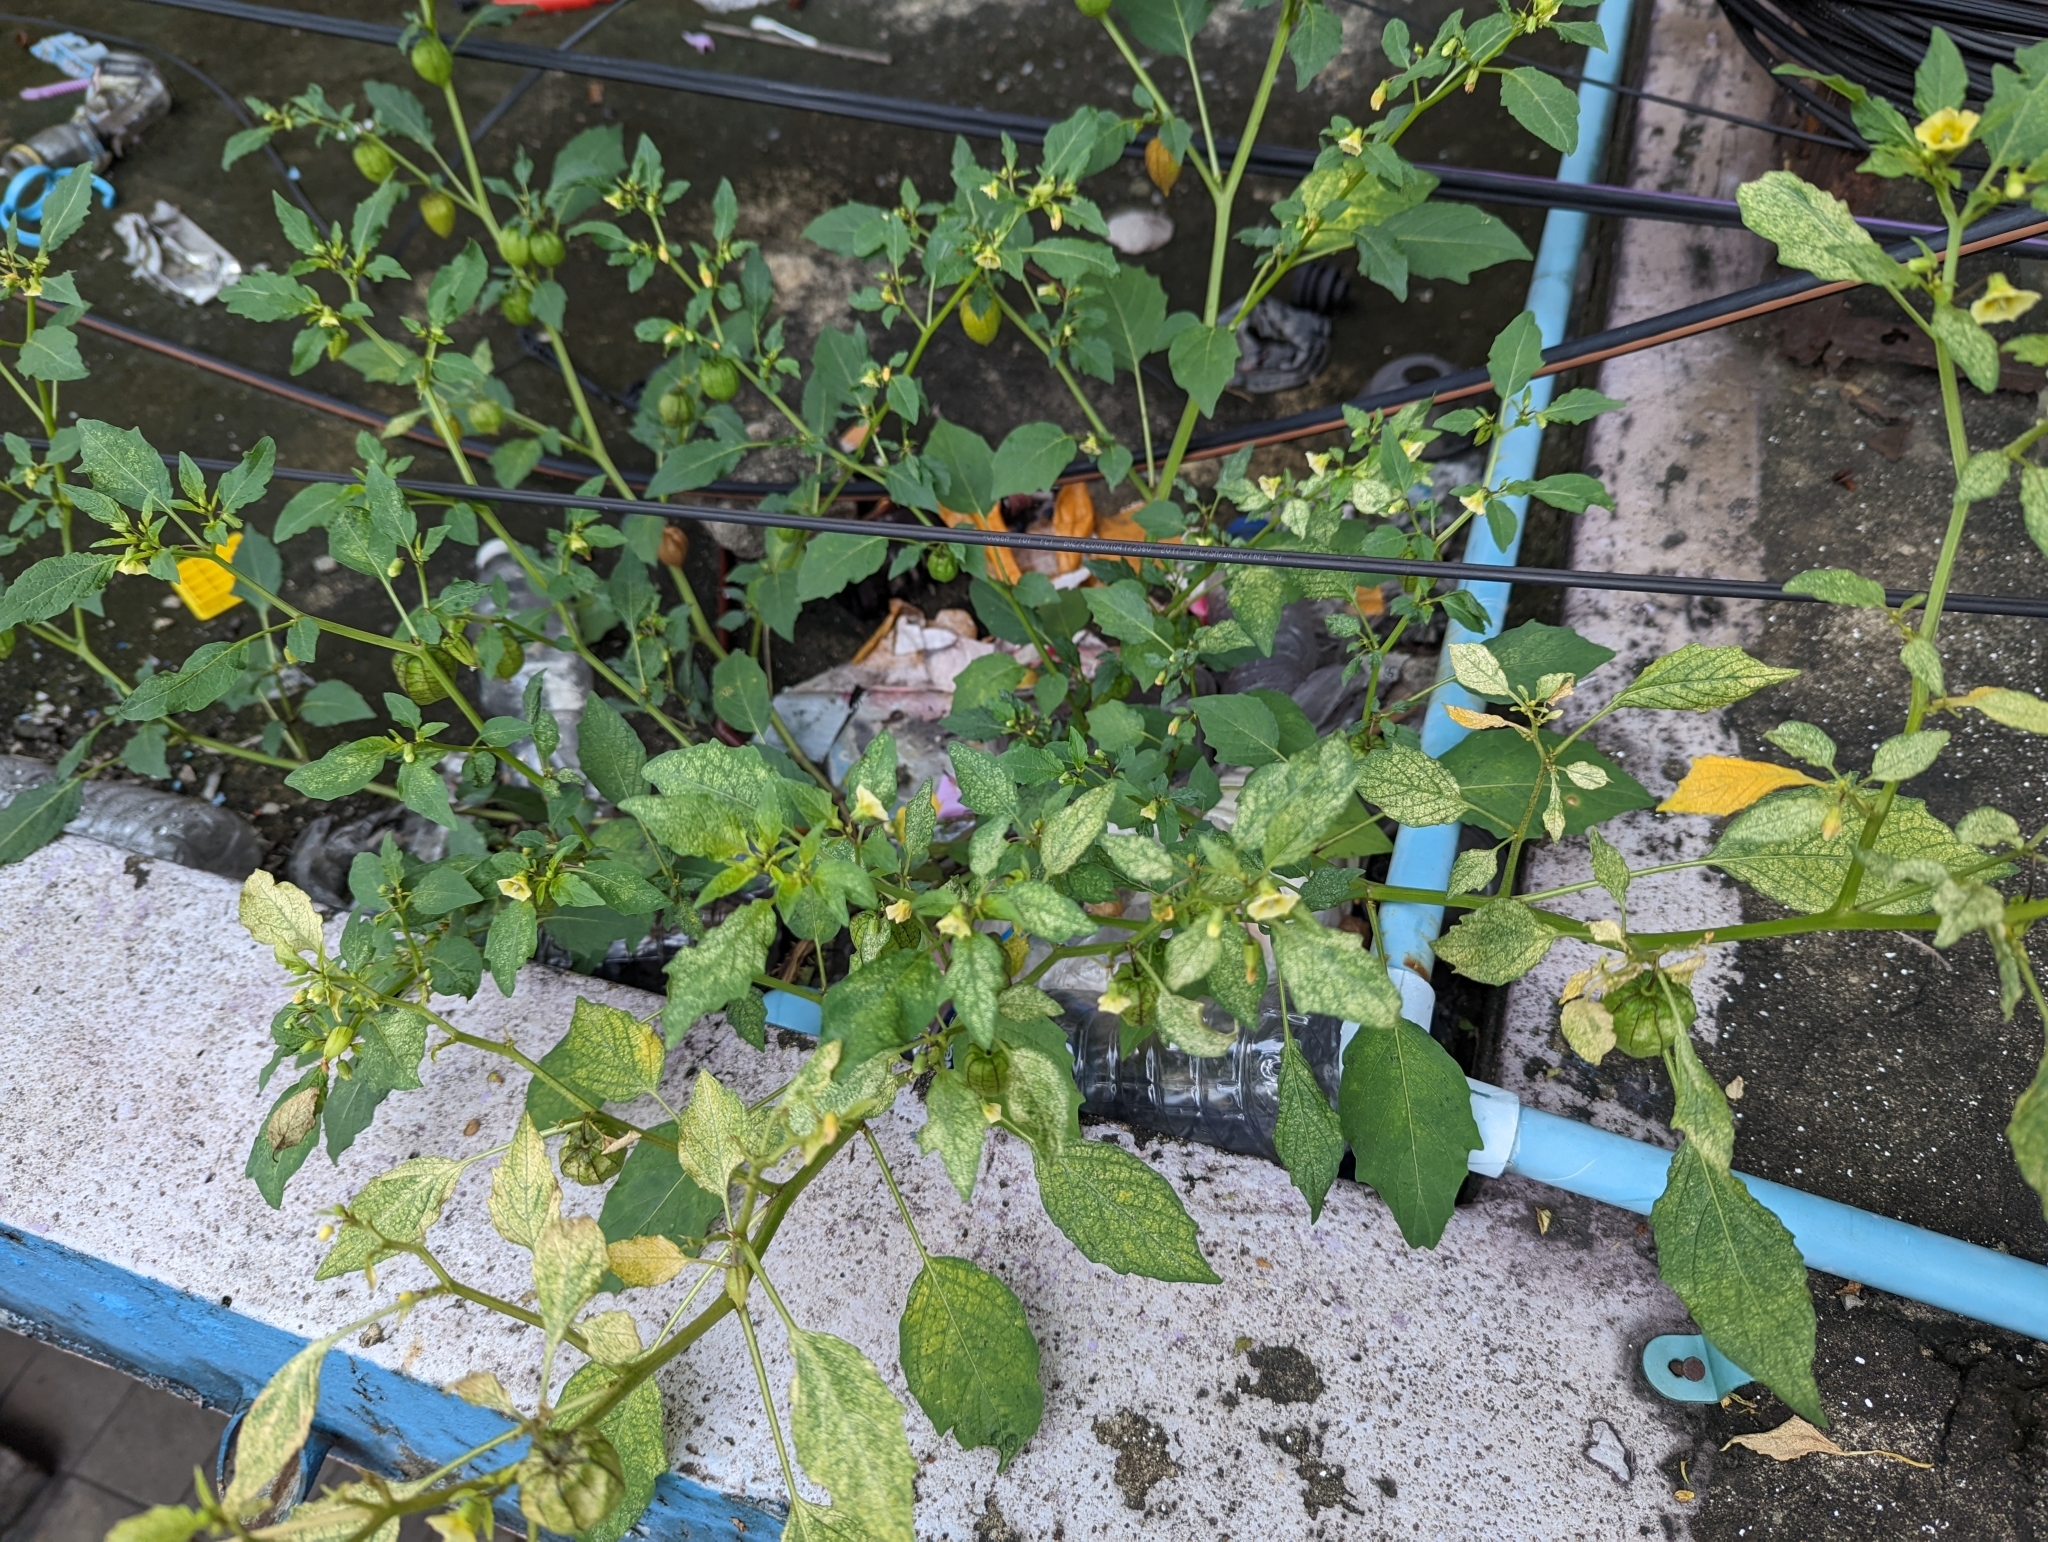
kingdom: Plantae
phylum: Tracheophyta
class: Magnoliopsida
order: Solanales
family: Solanaceae
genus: Physalis
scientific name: Physalis angulata
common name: Angular winter-cherry
